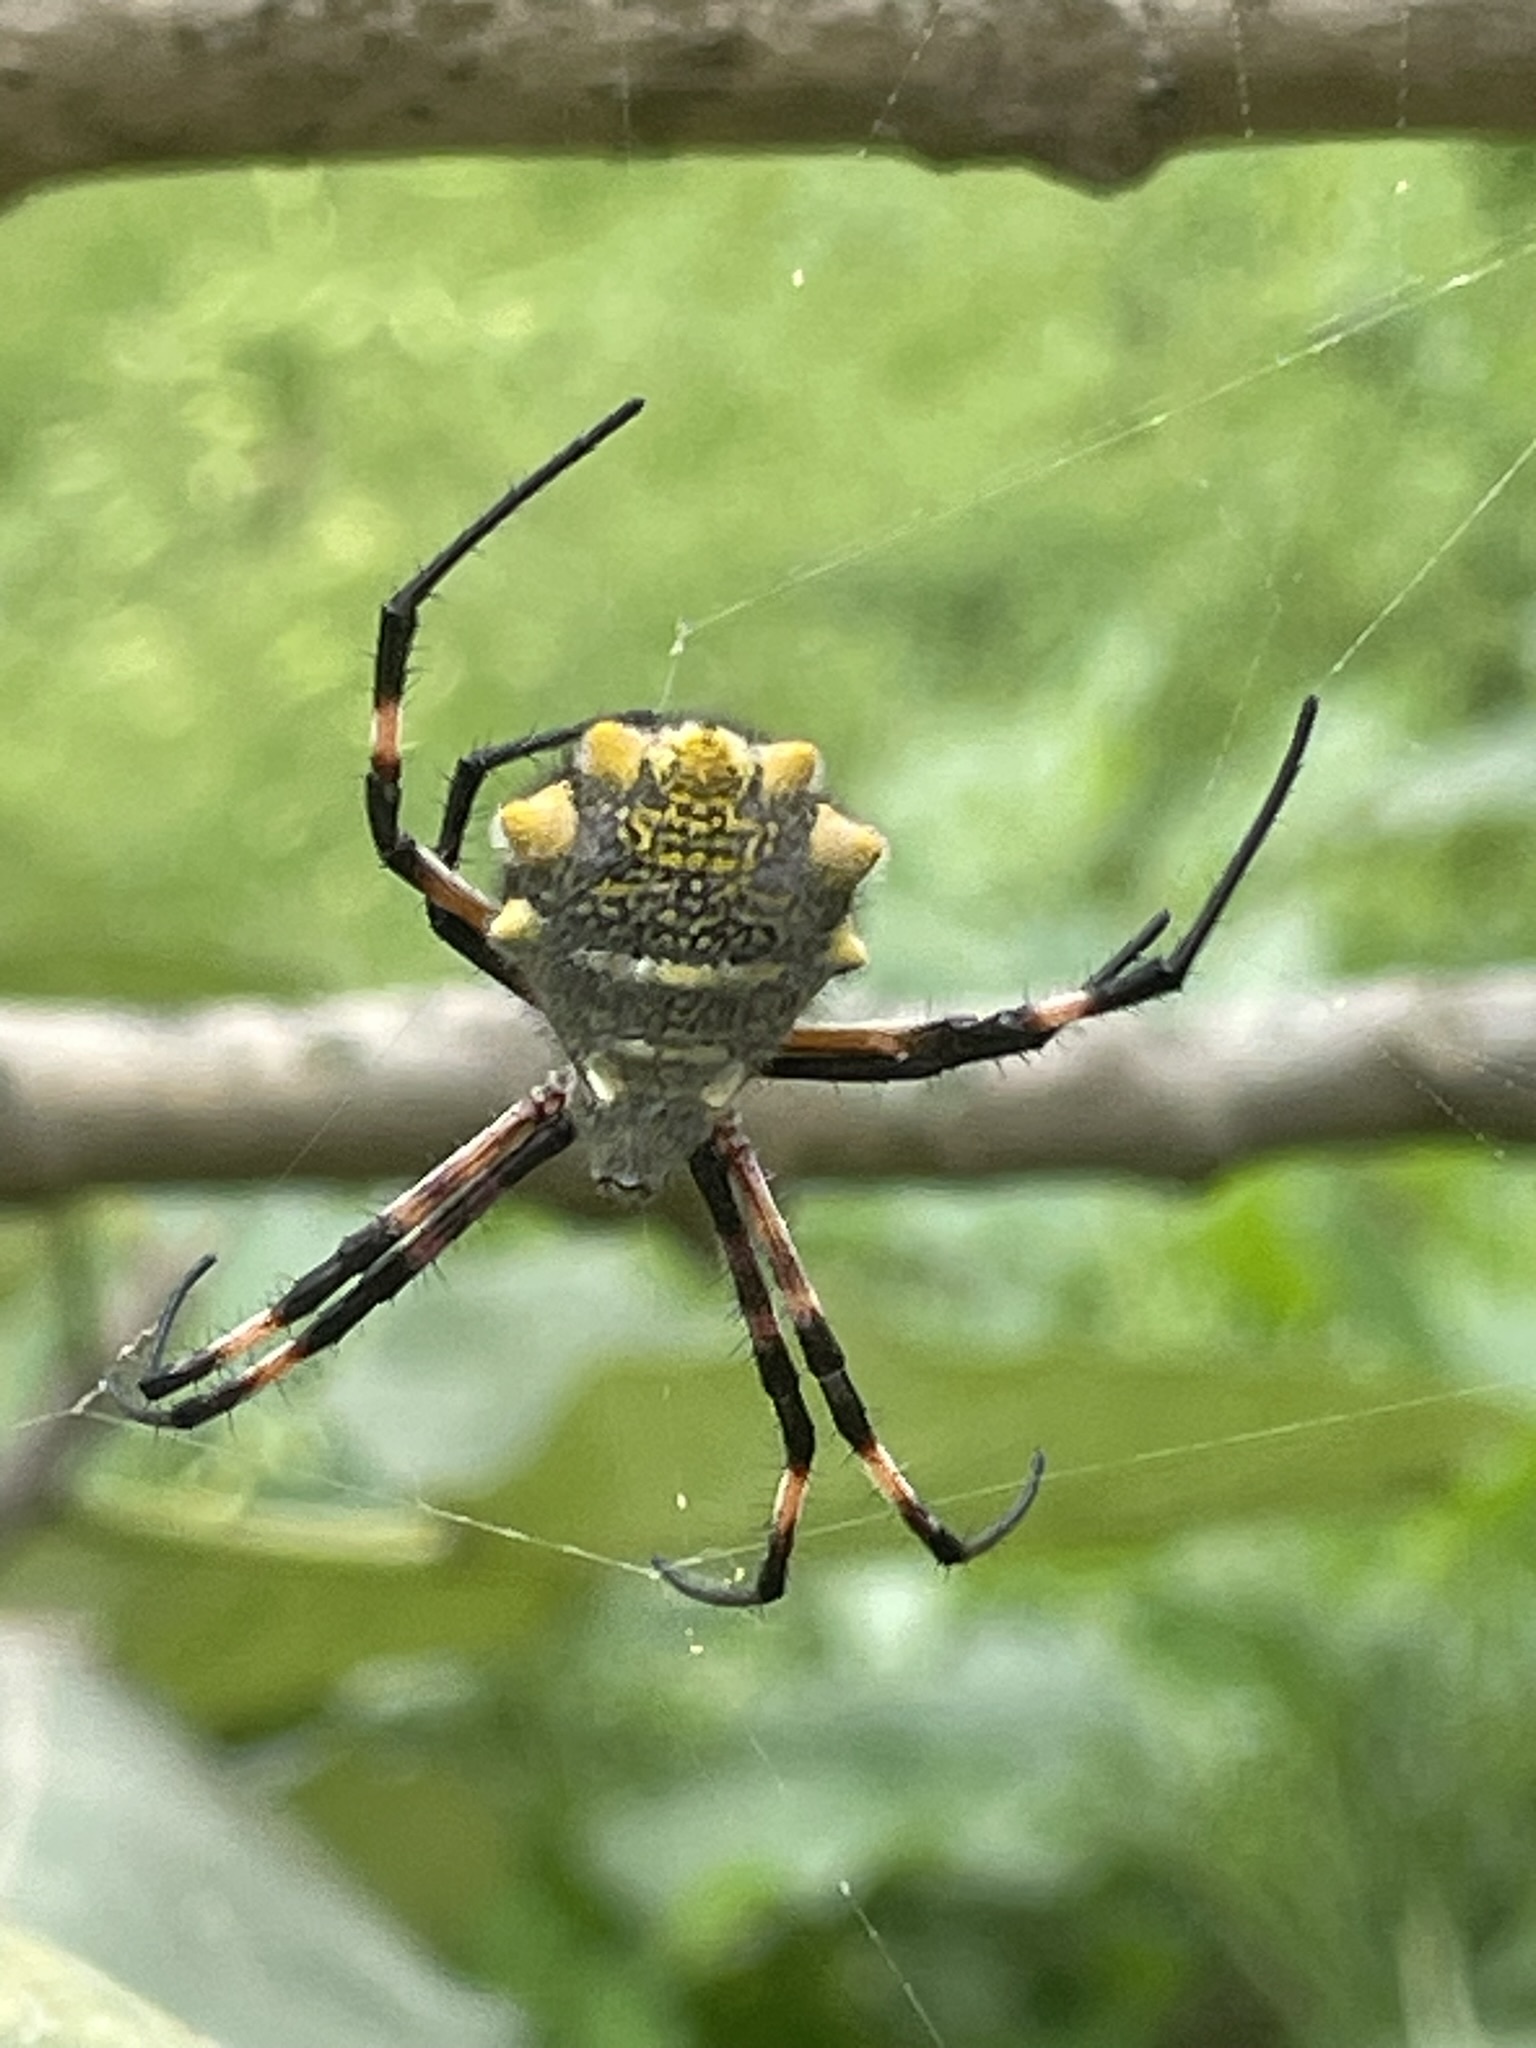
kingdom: Animalia
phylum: Arthropoda
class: Arachnida
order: Araneae
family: Araneidae
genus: Argiope
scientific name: Argiope argentata
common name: Orb weavers
